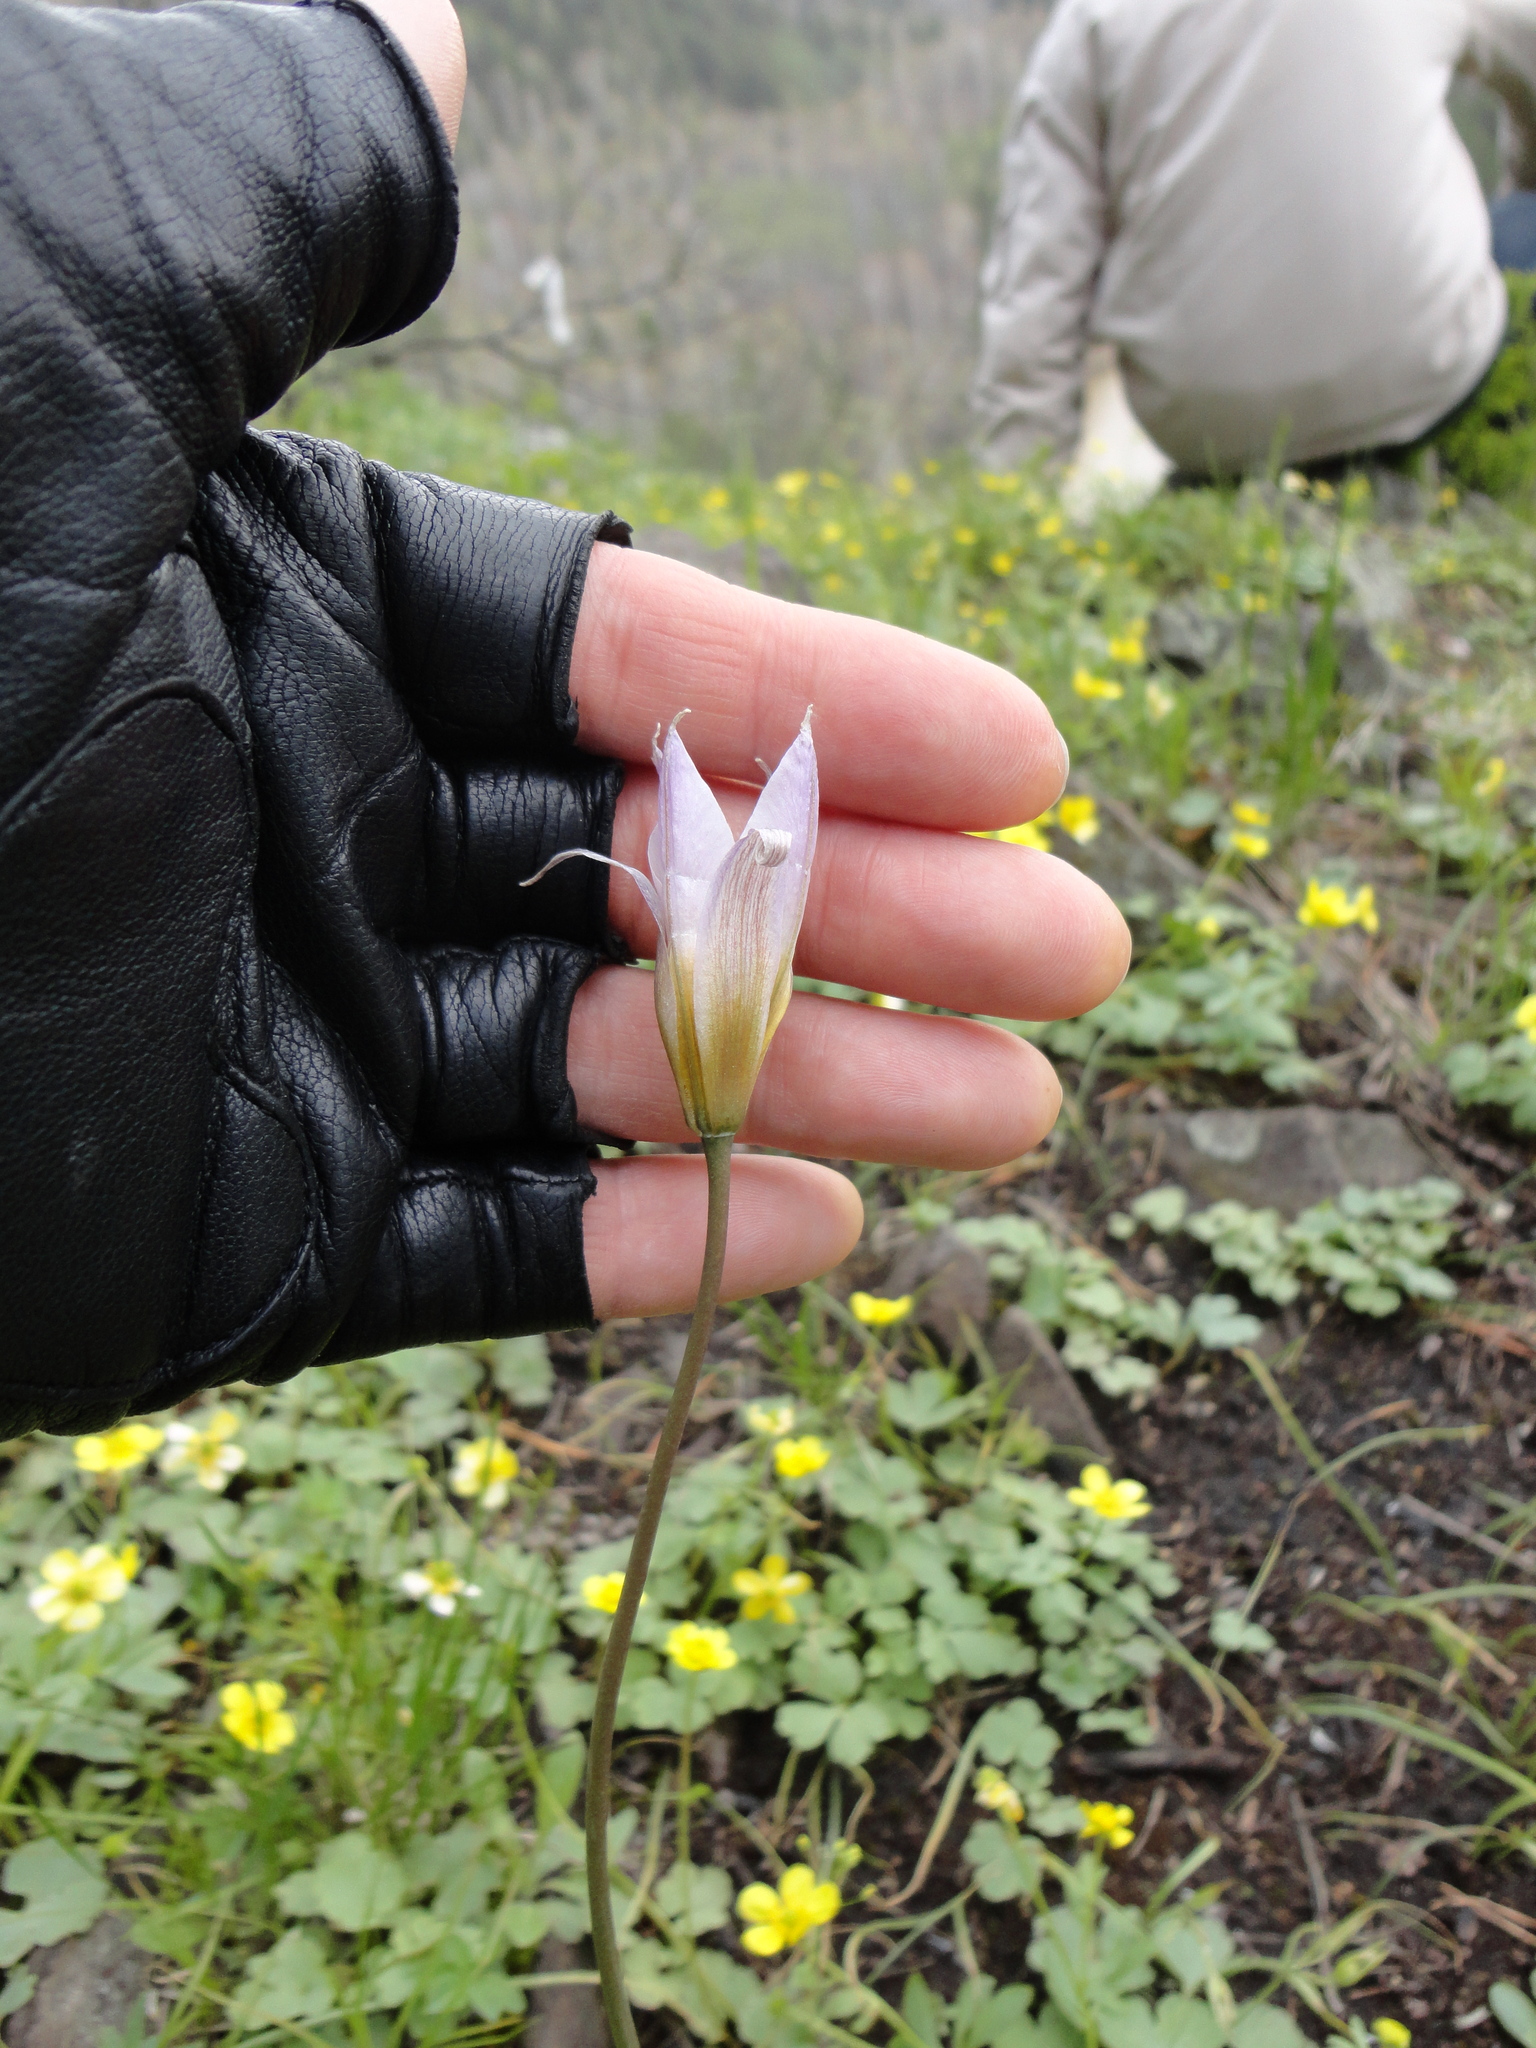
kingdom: Plantae
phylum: Tracheophyta
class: Liliopsida
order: Liliales
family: Liliaceae
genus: Tulipa
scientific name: Tulipa patens
